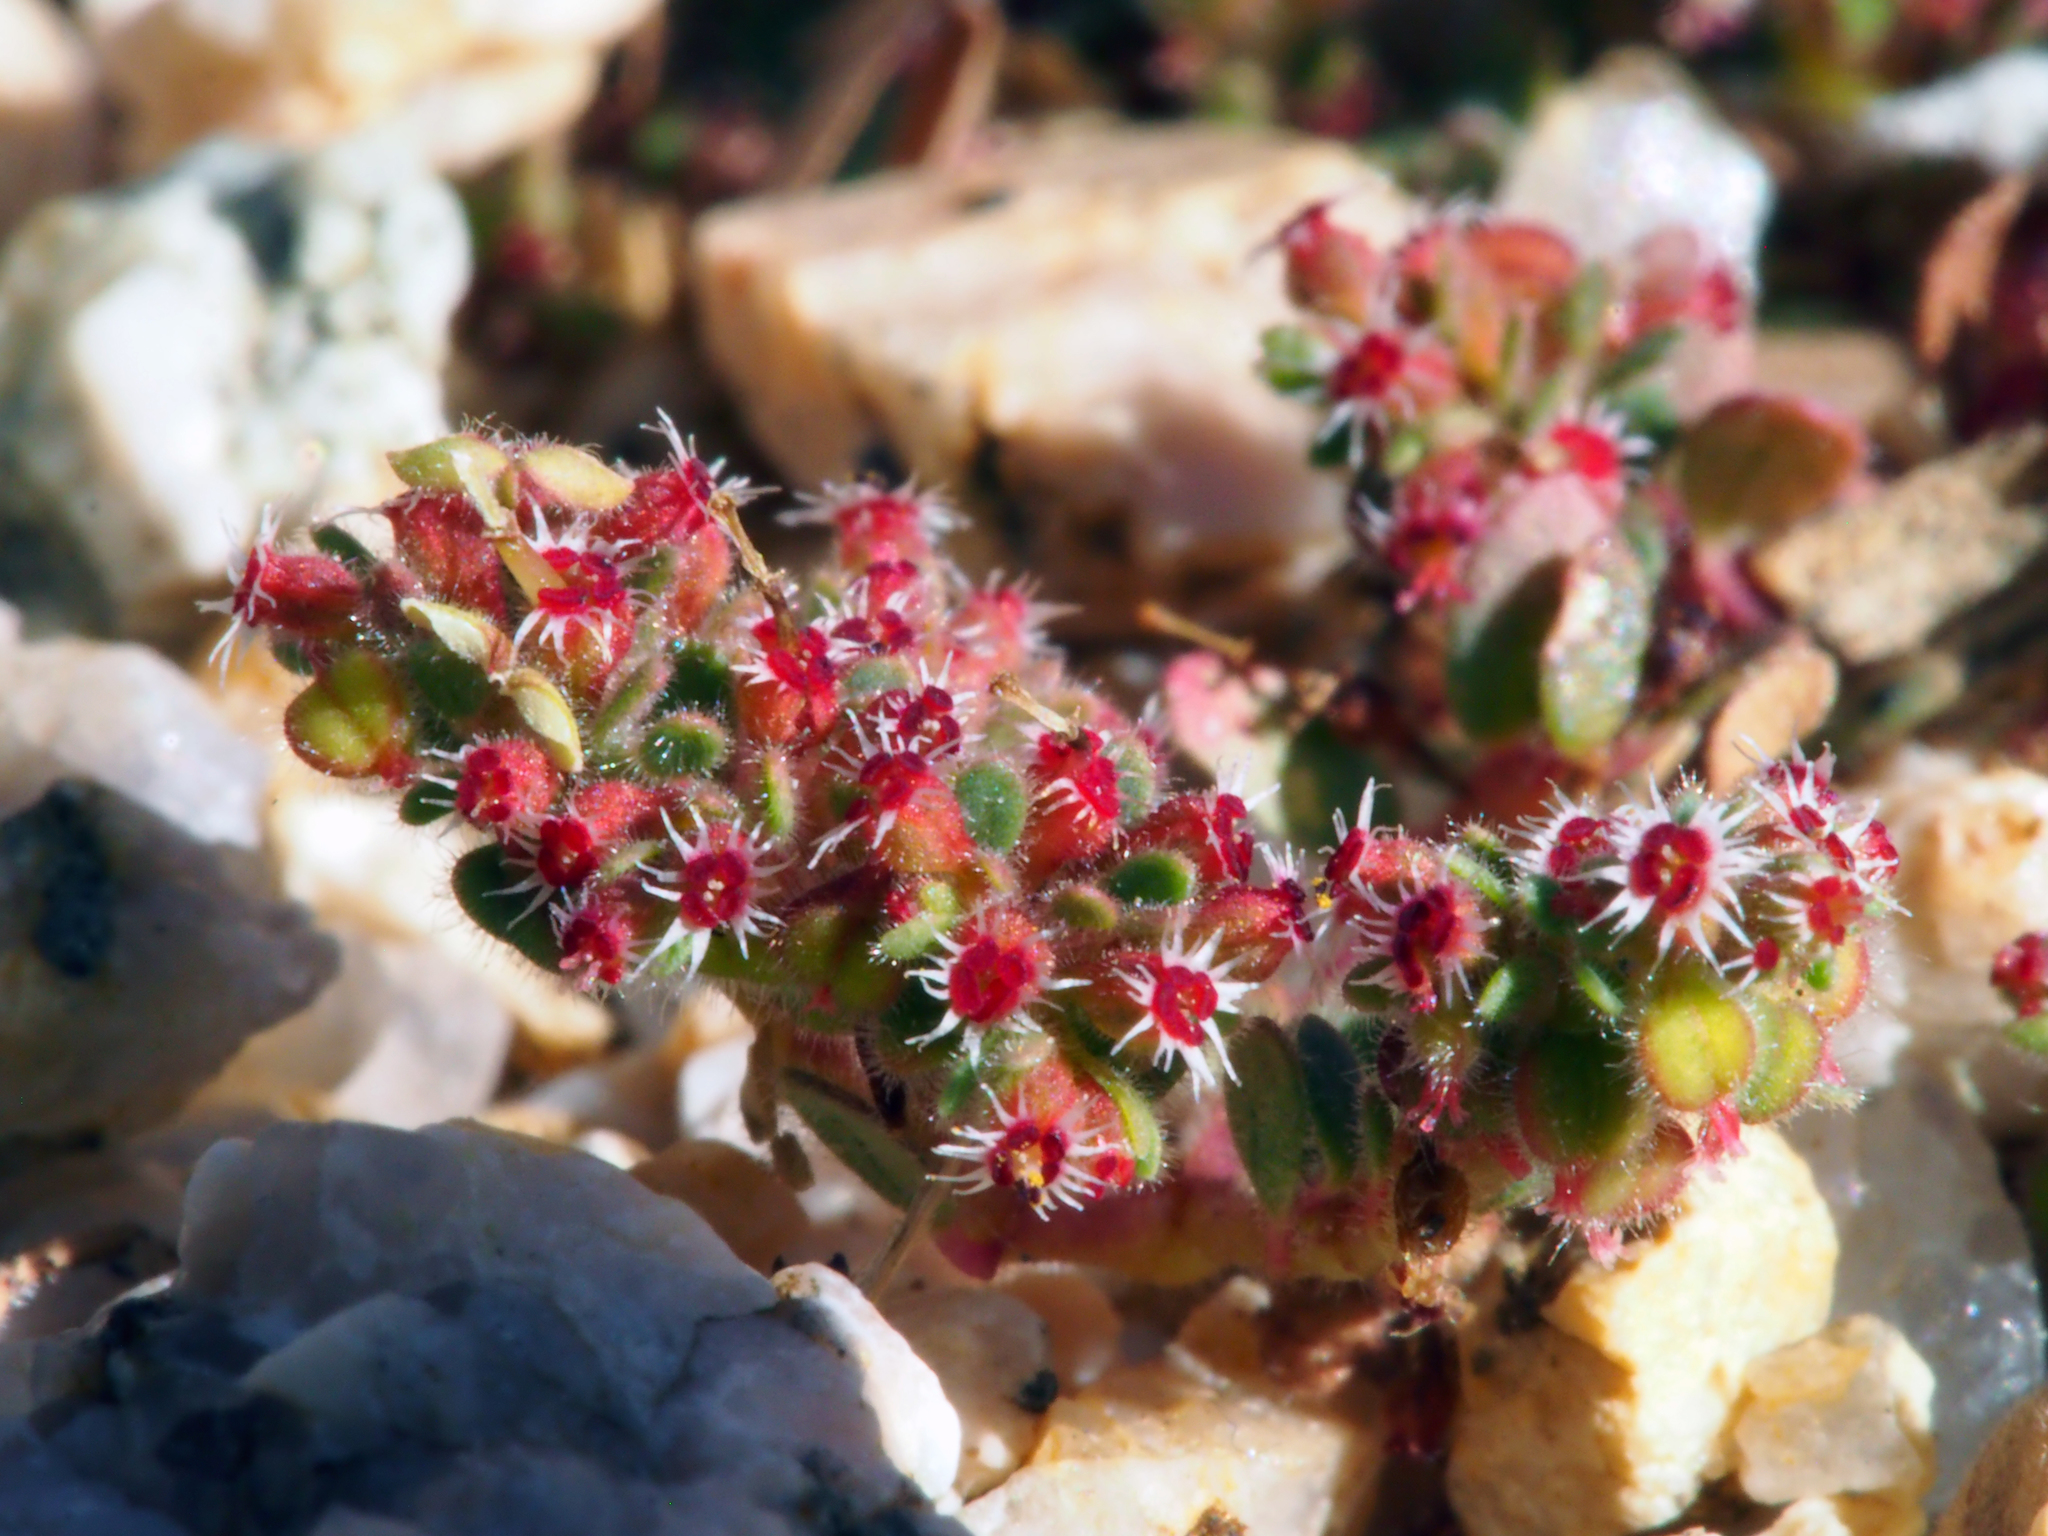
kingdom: Plantae
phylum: Tracheophyta
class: Magnoliopsida
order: Malpighiales
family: Euphorbiaceae
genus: Euphorbia
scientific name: Euphorbia setiloba
